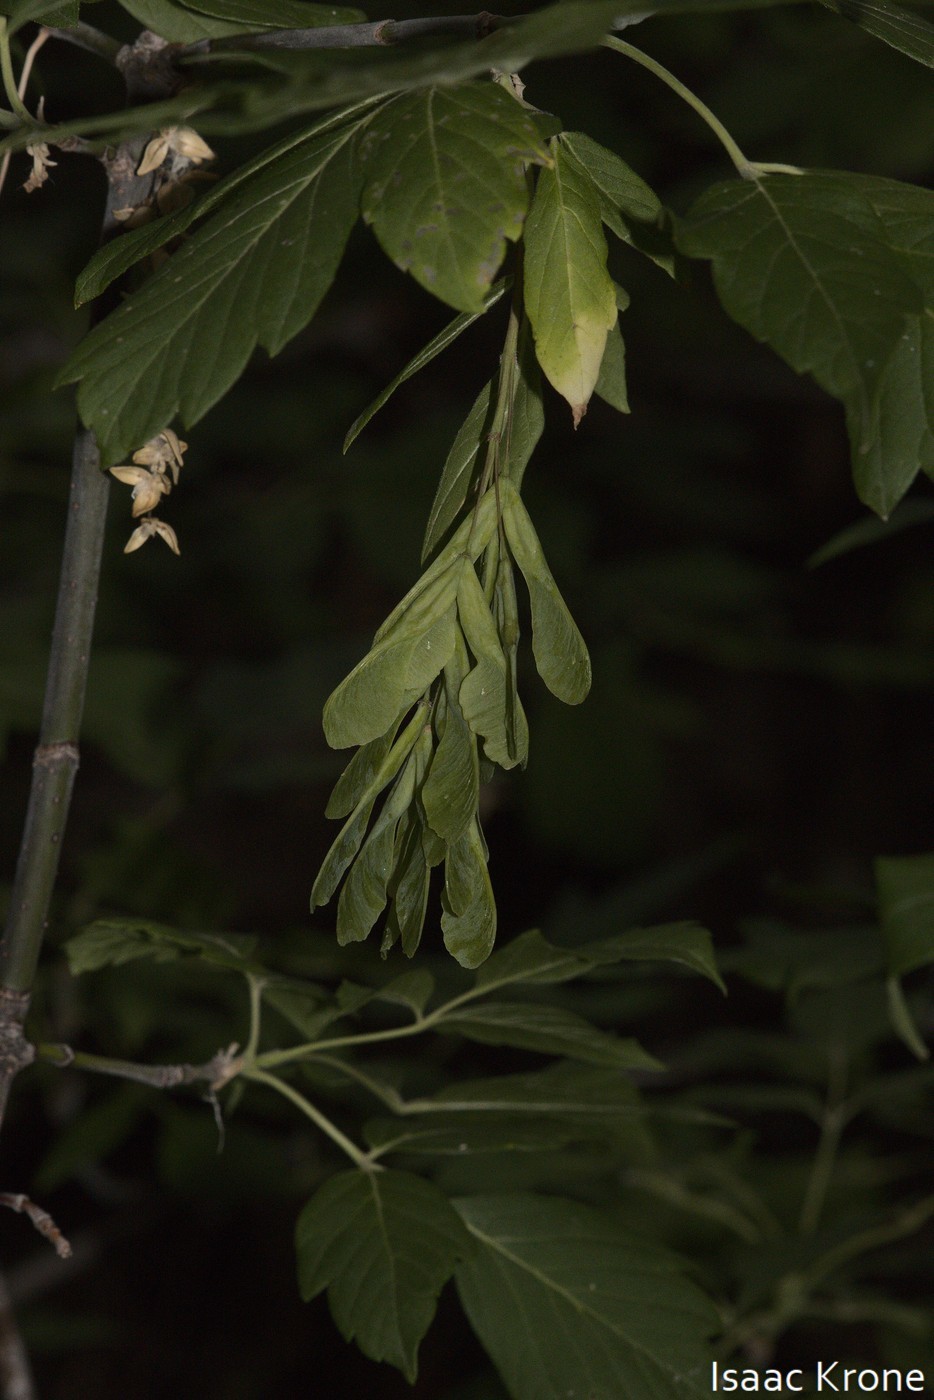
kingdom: Plantae
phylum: Tracheophyta
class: Magnoliopsida
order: Sapindales
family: Sapindaceae
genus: Acer
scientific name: Acer negundo
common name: Ashleaf maple
